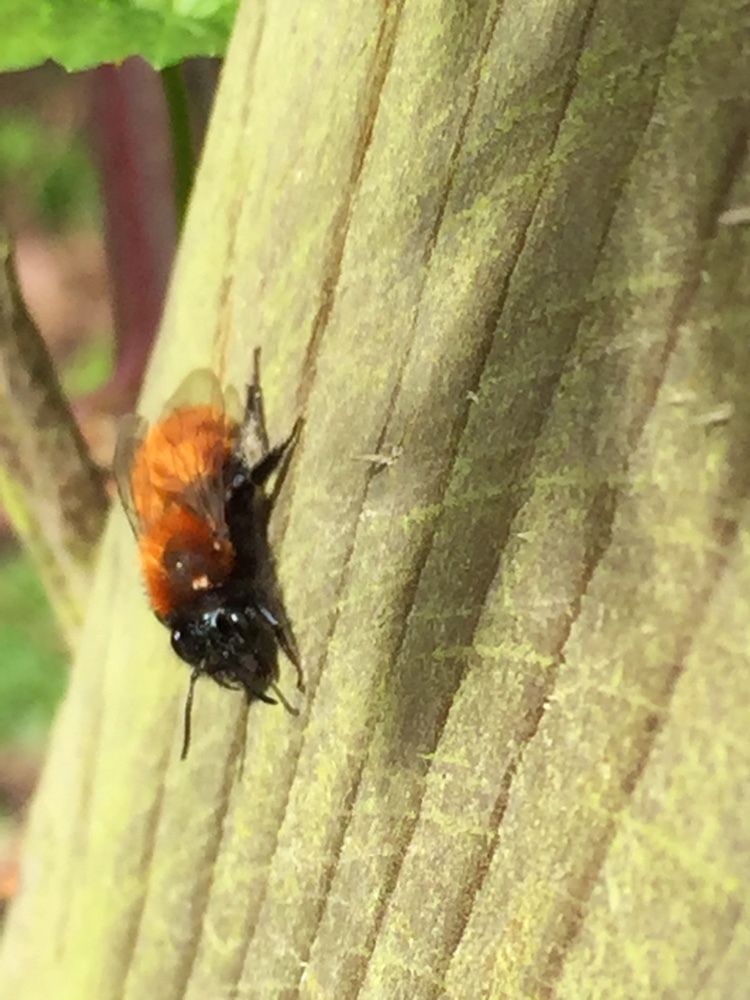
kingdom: Animalia
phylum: Arthropoda
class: Insecta
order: Hymenoptera
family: Andrenidae
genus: Andrena
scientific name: Andrena fulva
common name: Tawny mining bee
